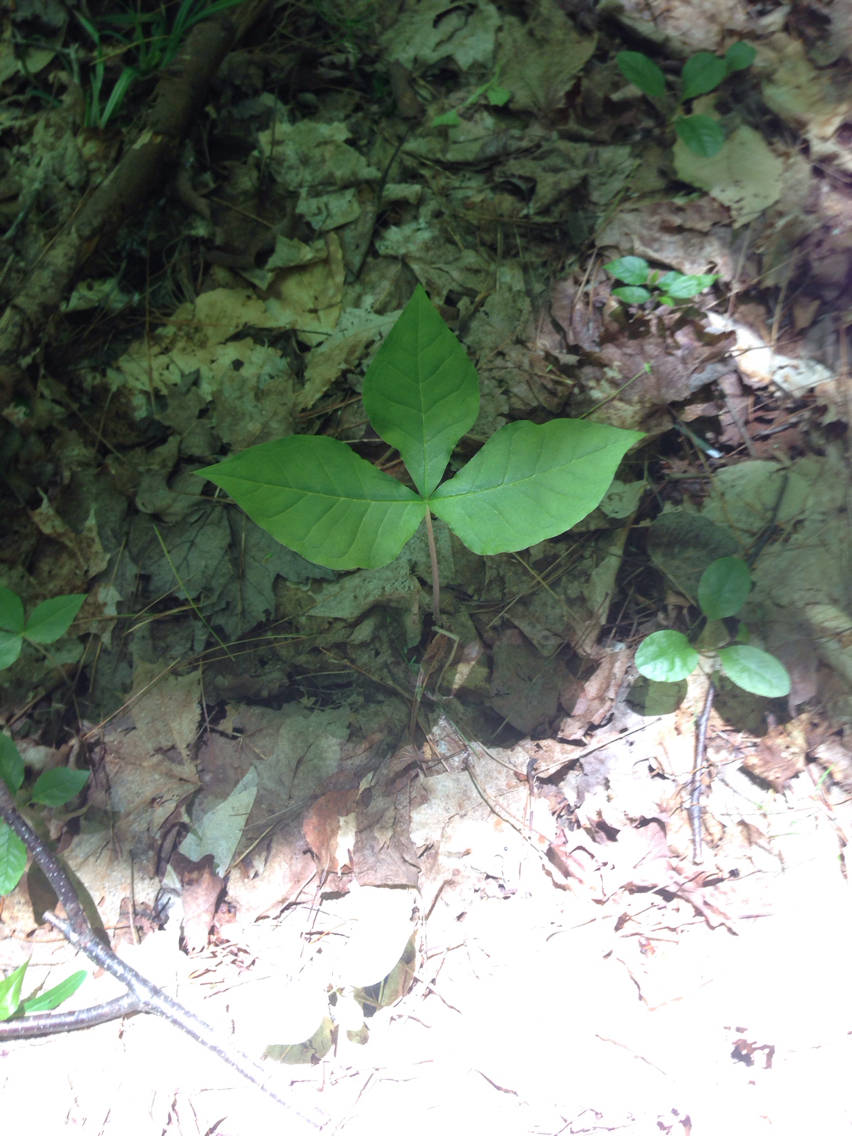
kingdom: Plantae
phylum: Tracheophyta
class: Liliopsida
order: Alismatales
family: Araceae
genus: Arisaema
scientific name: Arisaema triphyllum
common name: Jack-in-the-pulpit
